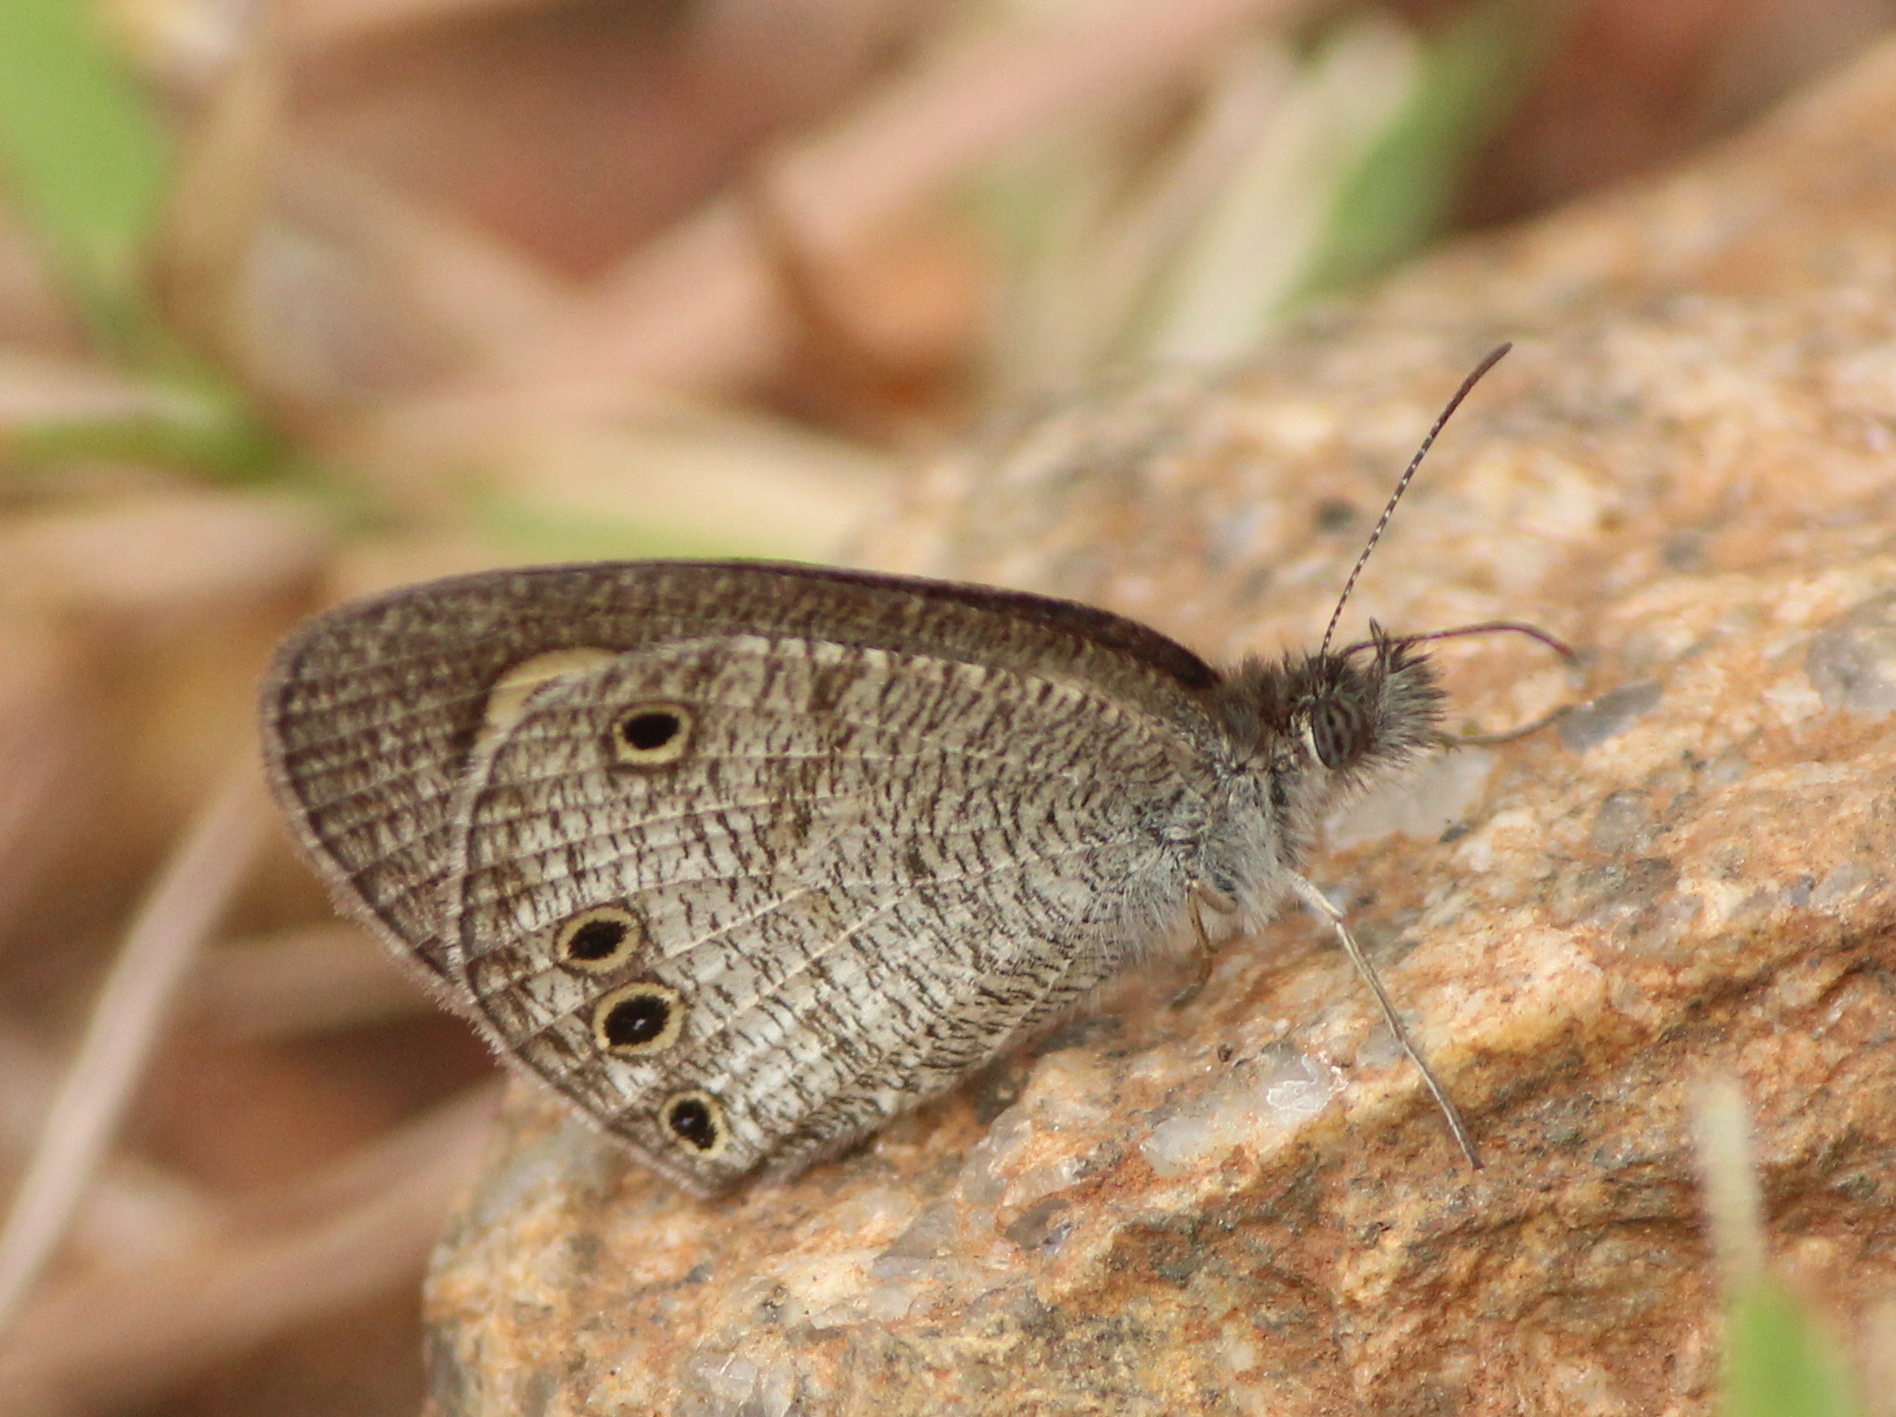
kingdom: Animalia
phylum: Arthropoda
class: Insecta
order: Lepidoptera
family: Nymphalidae
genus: Ypthima
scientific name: Ypthima huebneri
